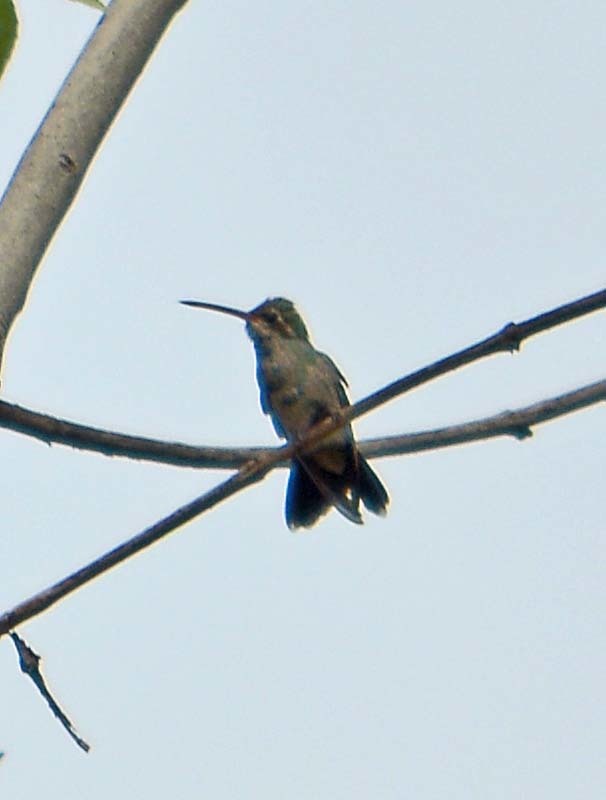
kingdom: Animalia
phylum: Chordata
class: Aves
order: Apodiformes
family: Trochilidae
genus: Cynanthus
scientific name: Cynanthus latirostris
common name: Broad-billed hummingbird
